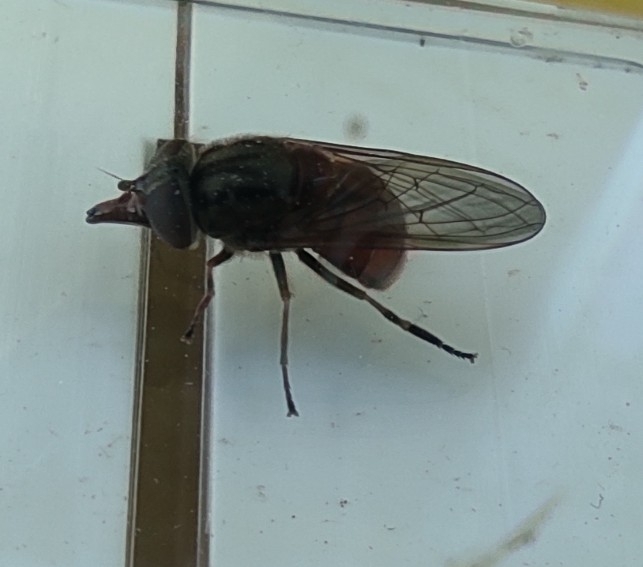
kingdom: Animalia
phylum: Arthropoda
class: Insecta
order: Diptera
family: Syrphidae
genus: Rhingia
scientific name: Rhingia campestris
